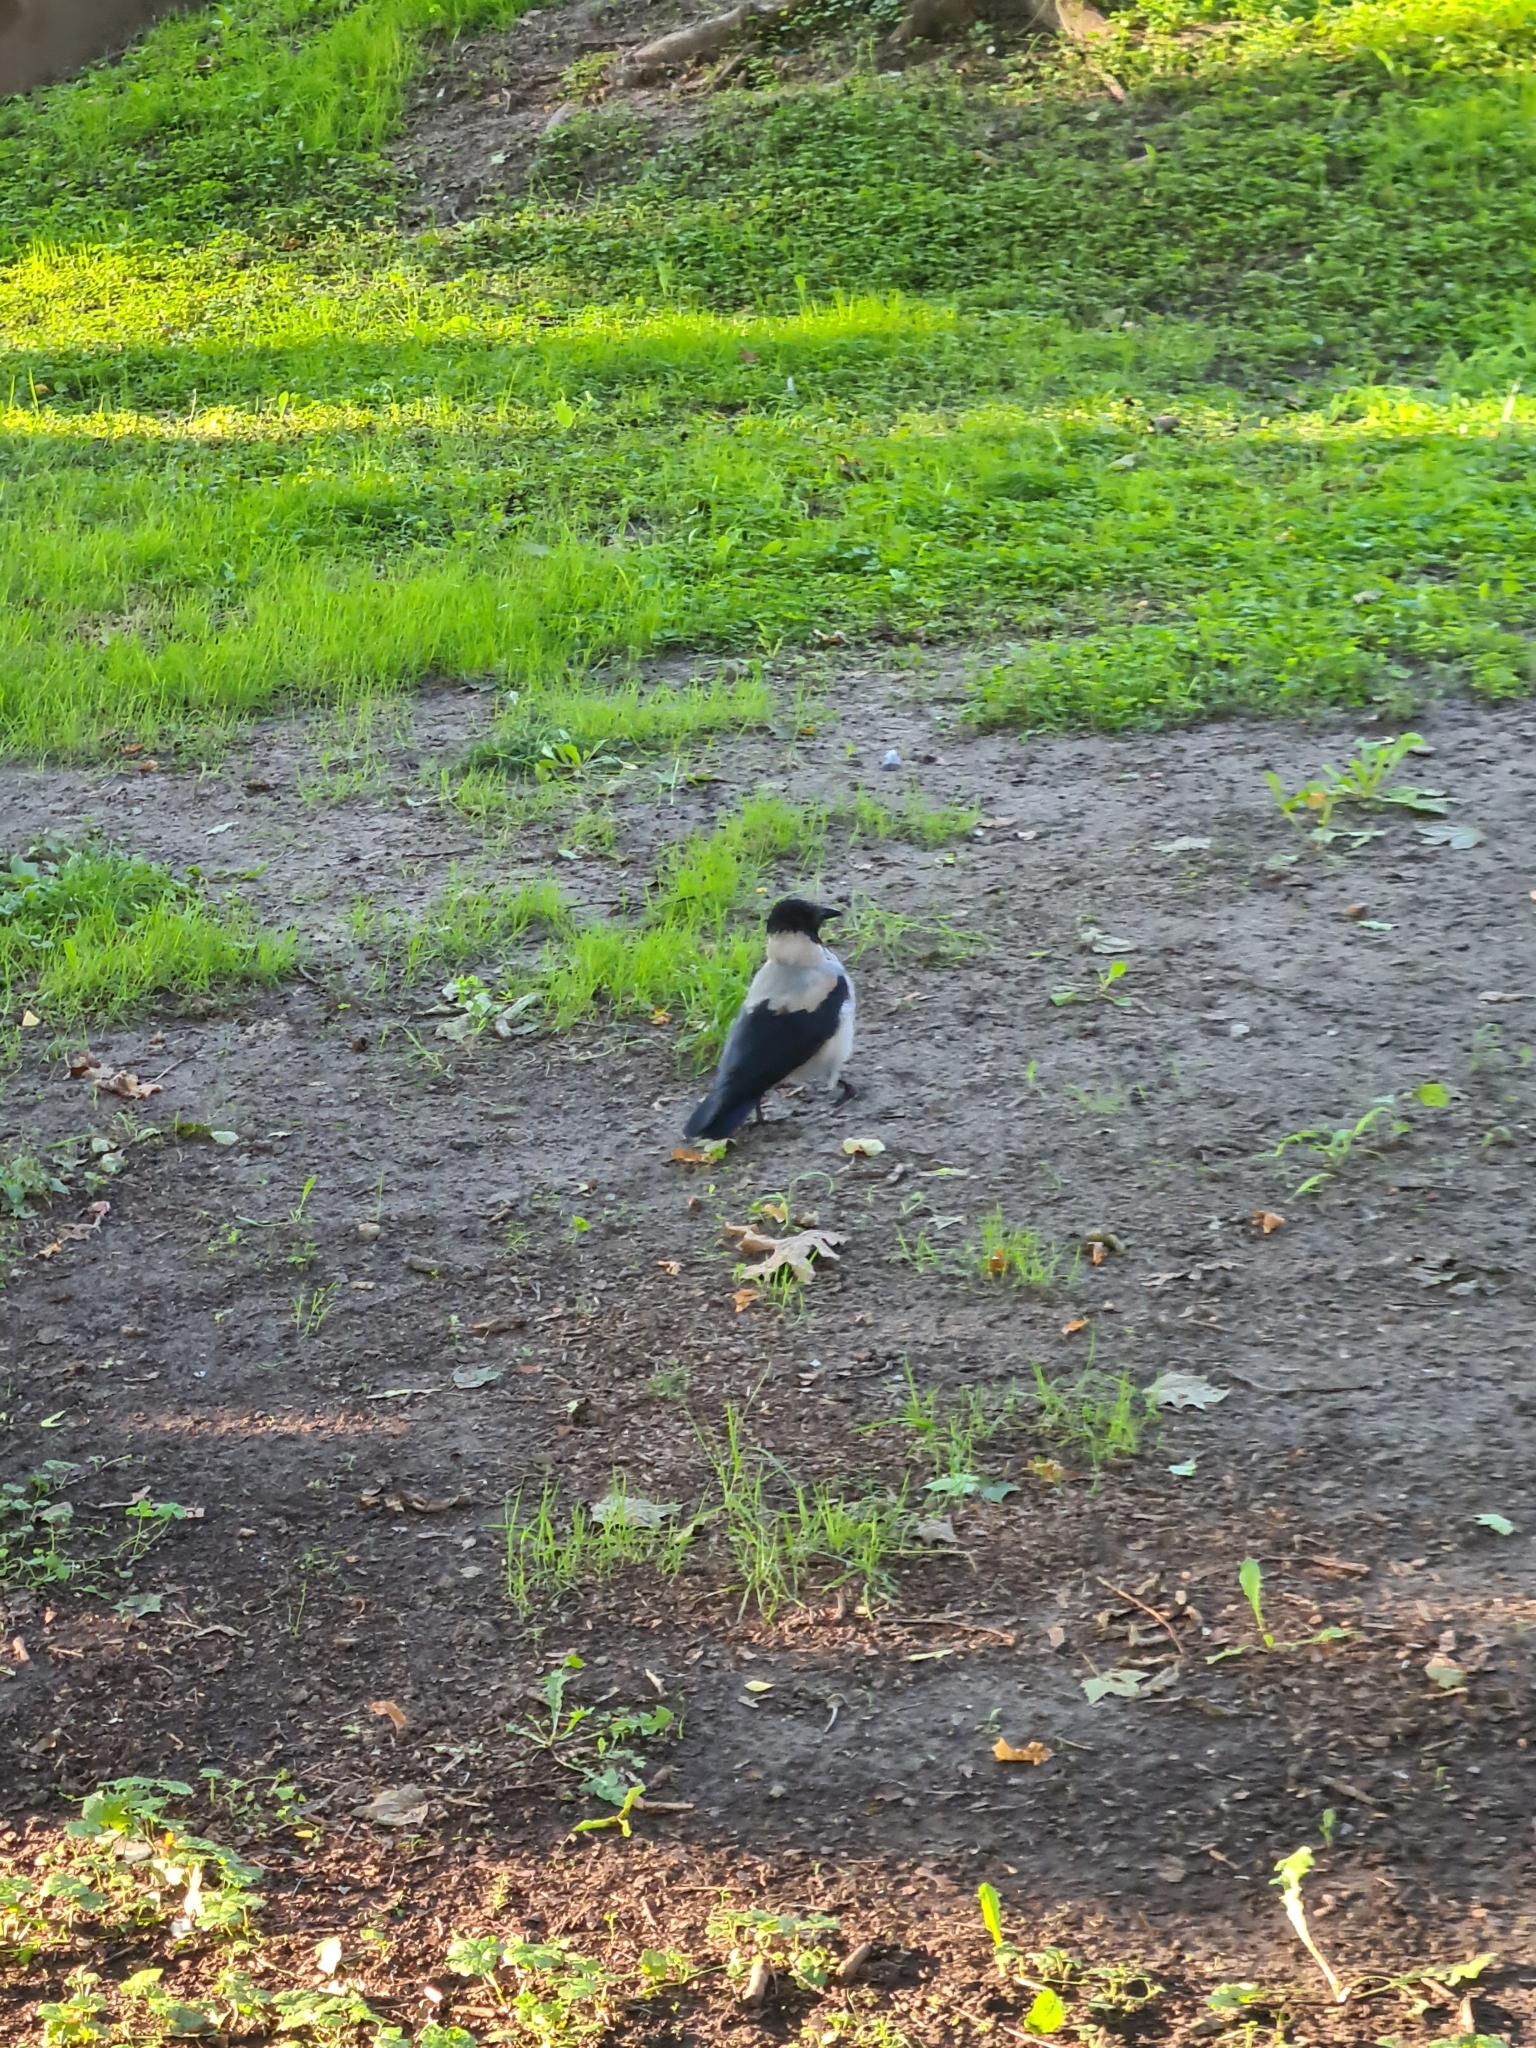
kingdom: Animalia
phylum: Chordata
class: Aves
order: Passeriformes
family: Corvidae
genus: Corvus
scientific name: Corvus cornix
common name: Hooded crow
